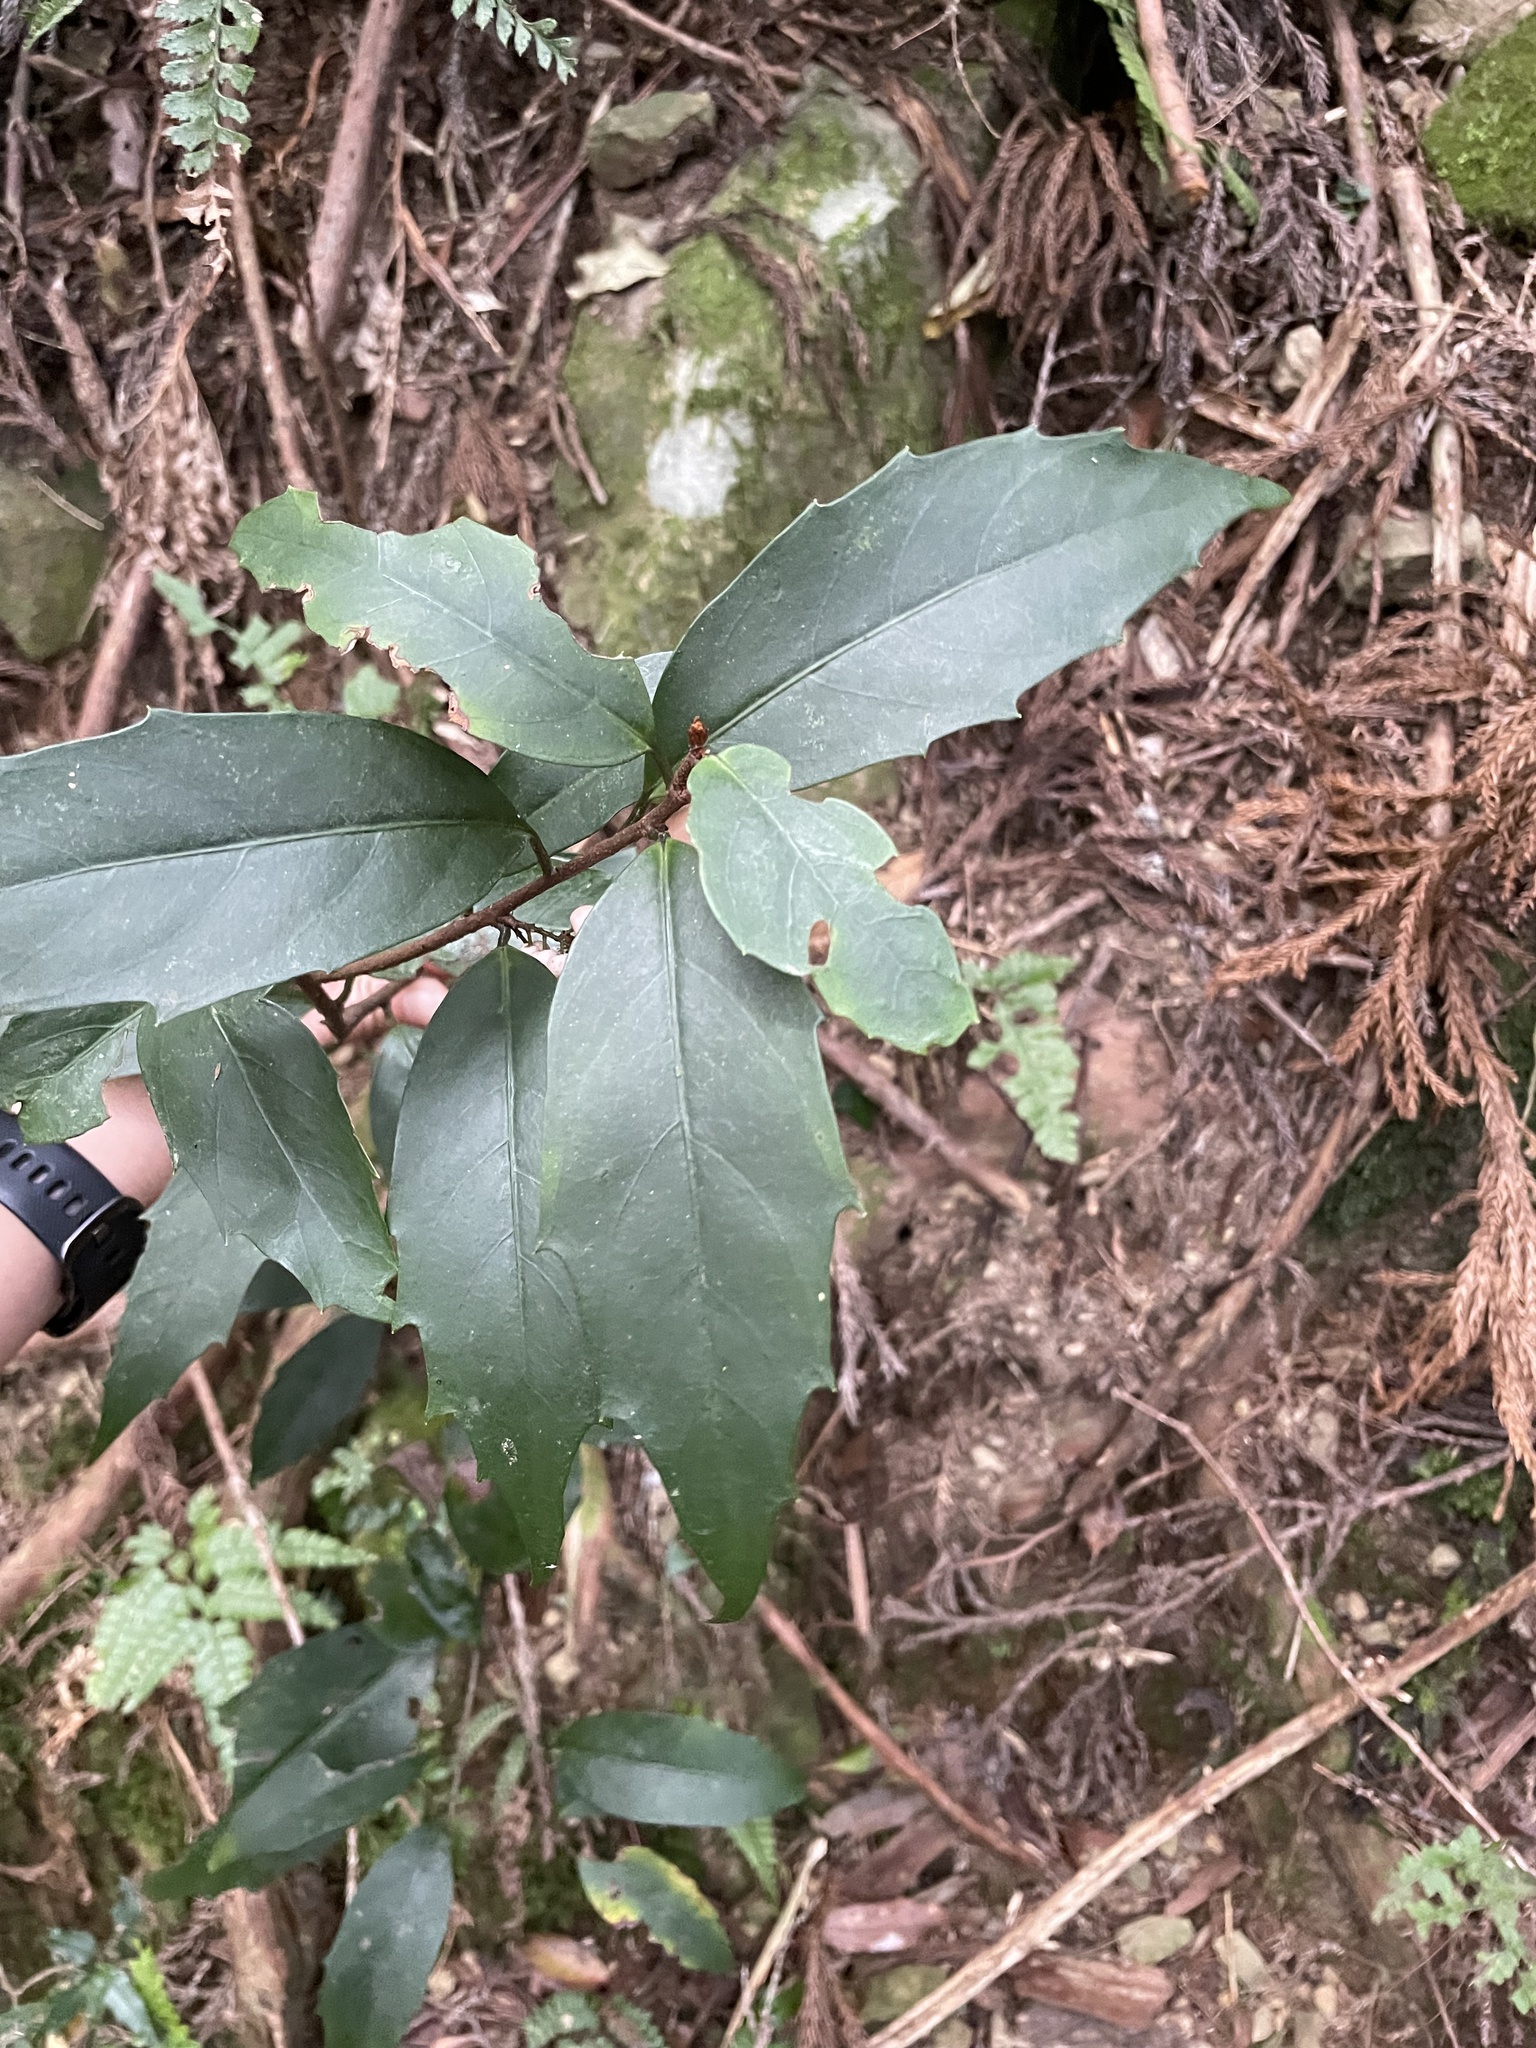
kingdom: Plantae
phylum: Tracheophyta
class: Magnoliopsida
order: Ericales
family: Primulaceae
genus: Maesa
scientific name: Maesa japonica
